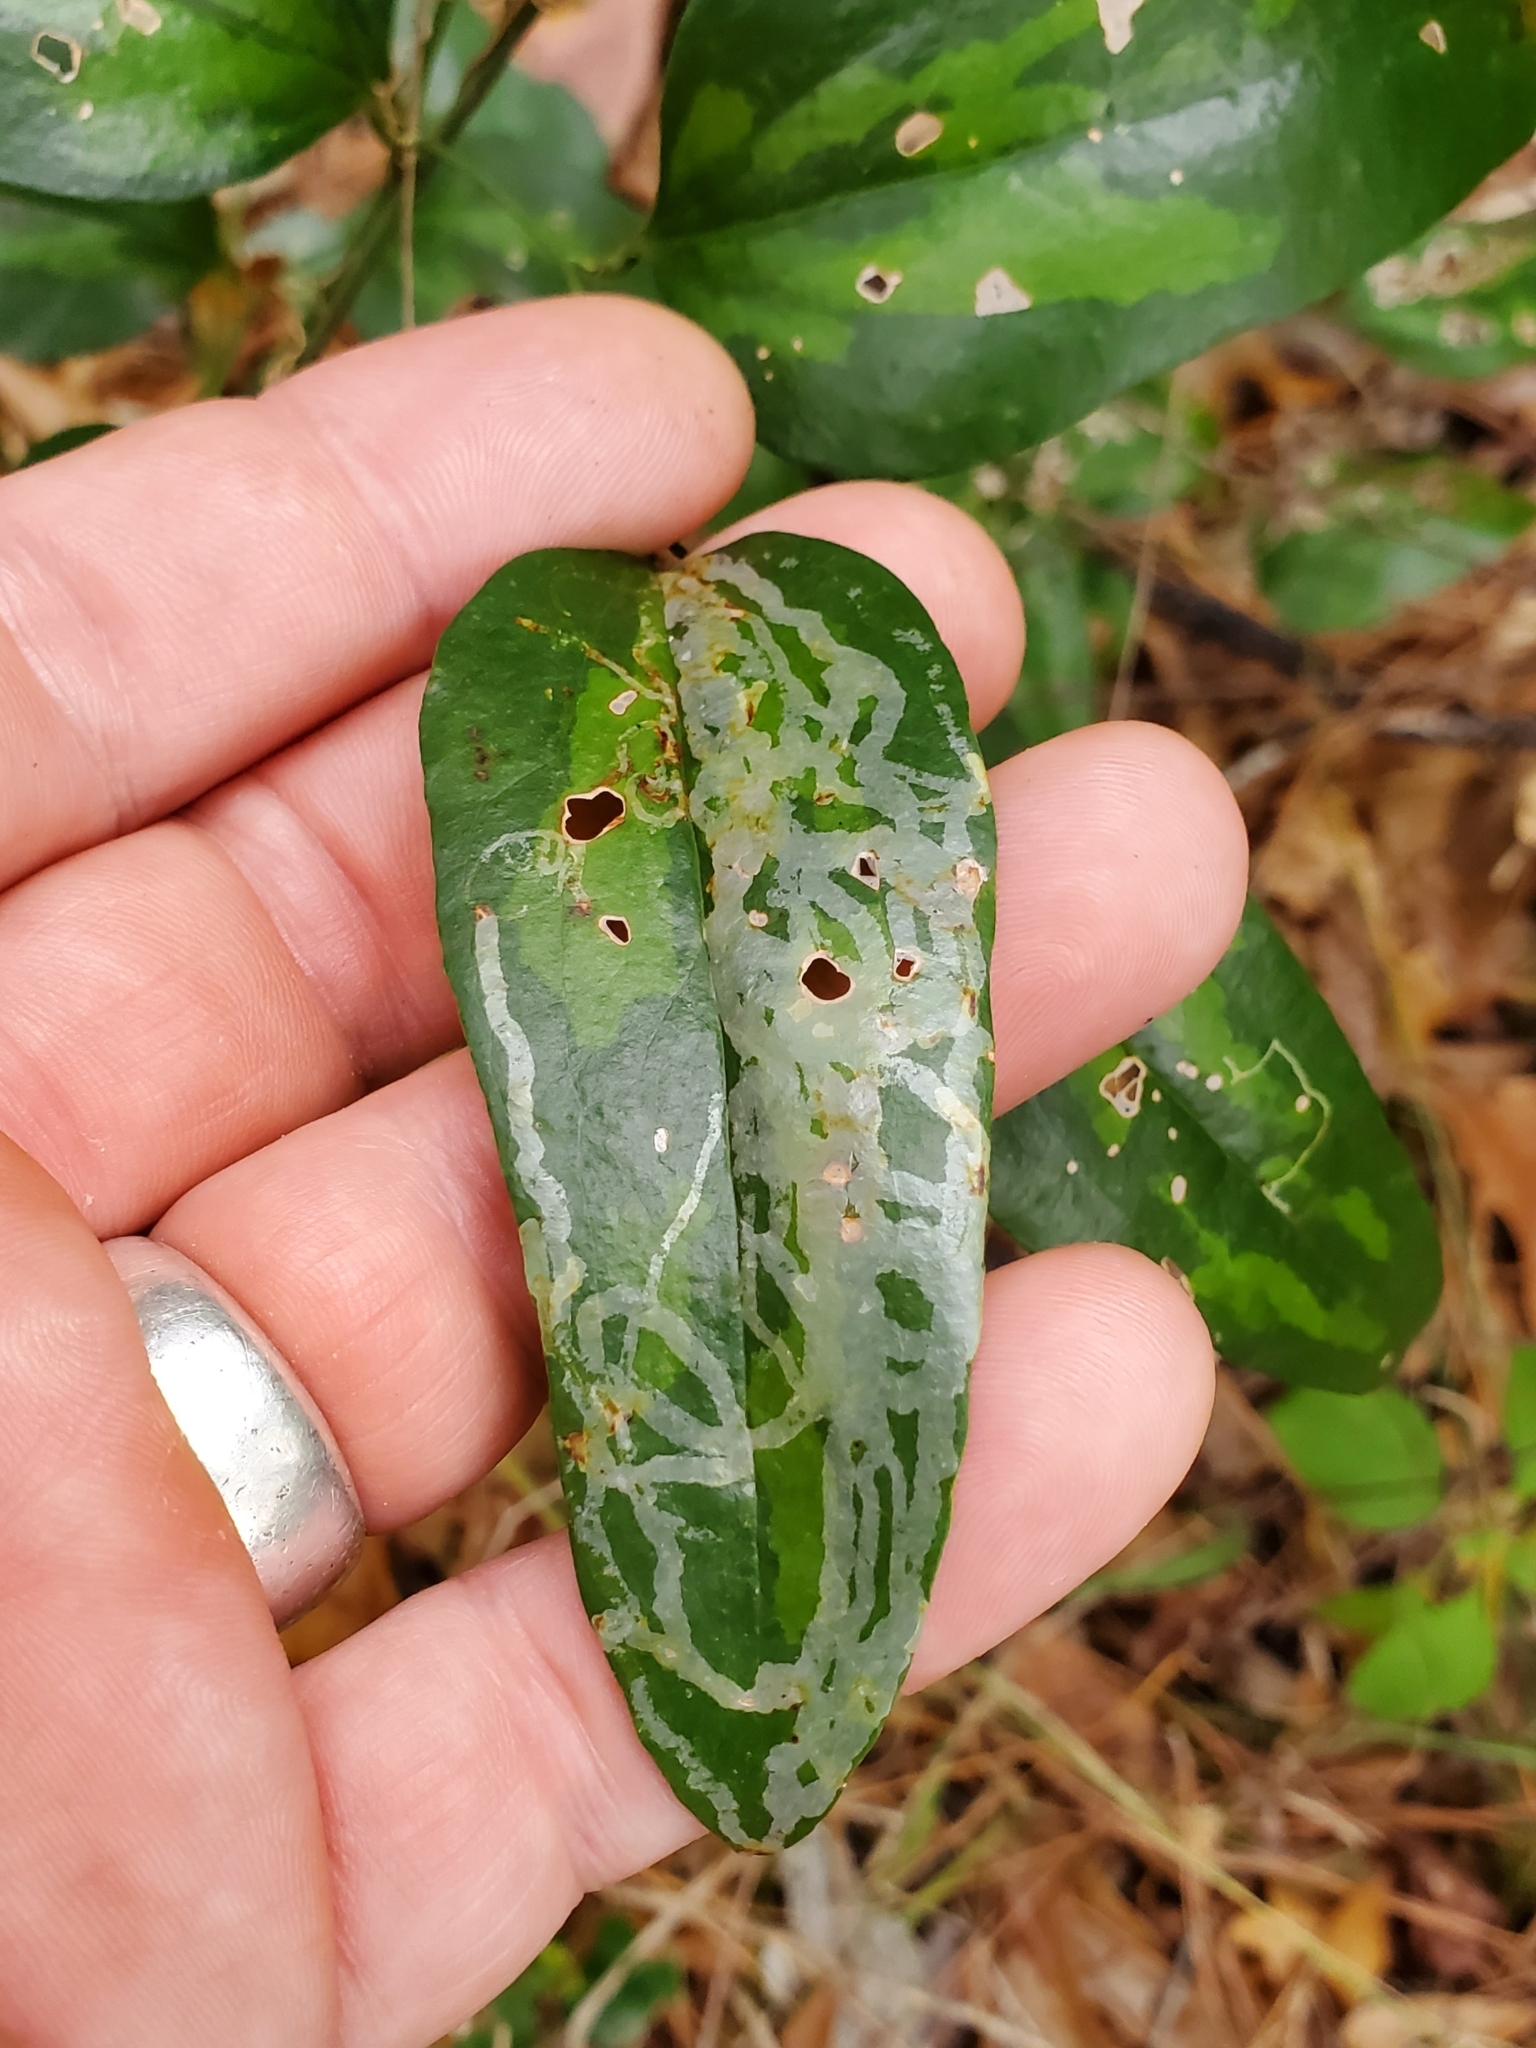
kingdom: Animalia
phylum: Arthropoda
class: Insecta
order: Diptera
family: Agromyzidae
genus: Liriomyza
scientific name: Liriomyza schmidti
